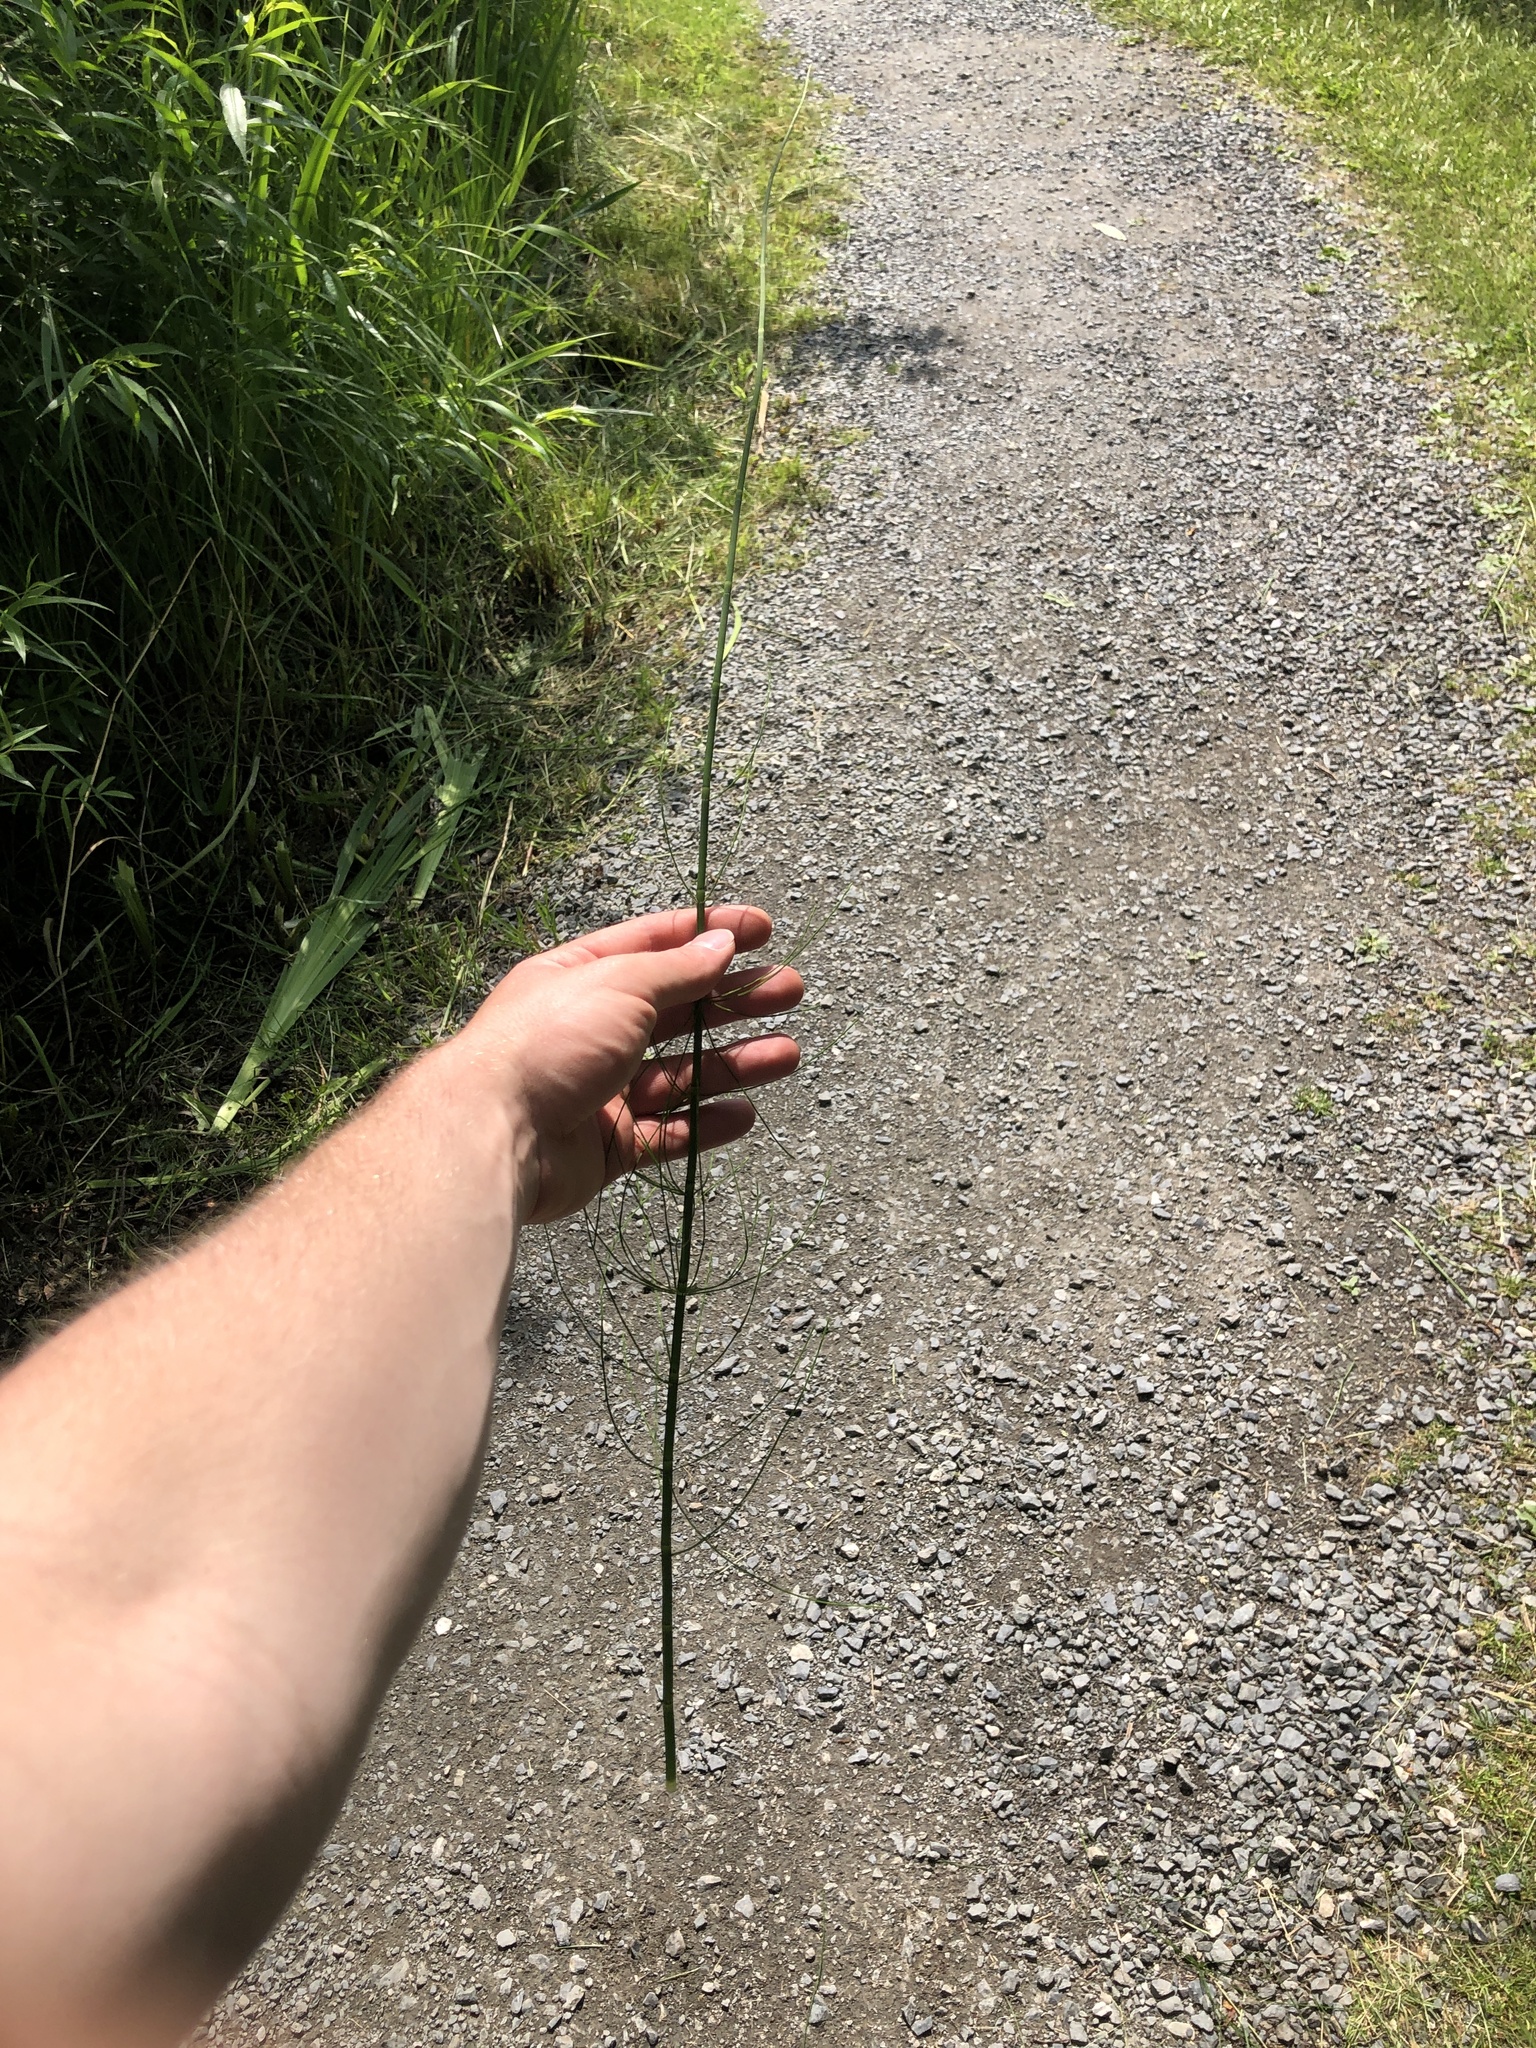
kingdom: Plantae
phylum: Tracheophyta
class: Polypodiopsida
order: Equisetales
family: Equisetaceae
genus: Equisetum
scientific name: Equisetum fluviatile
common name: Water horsetail
